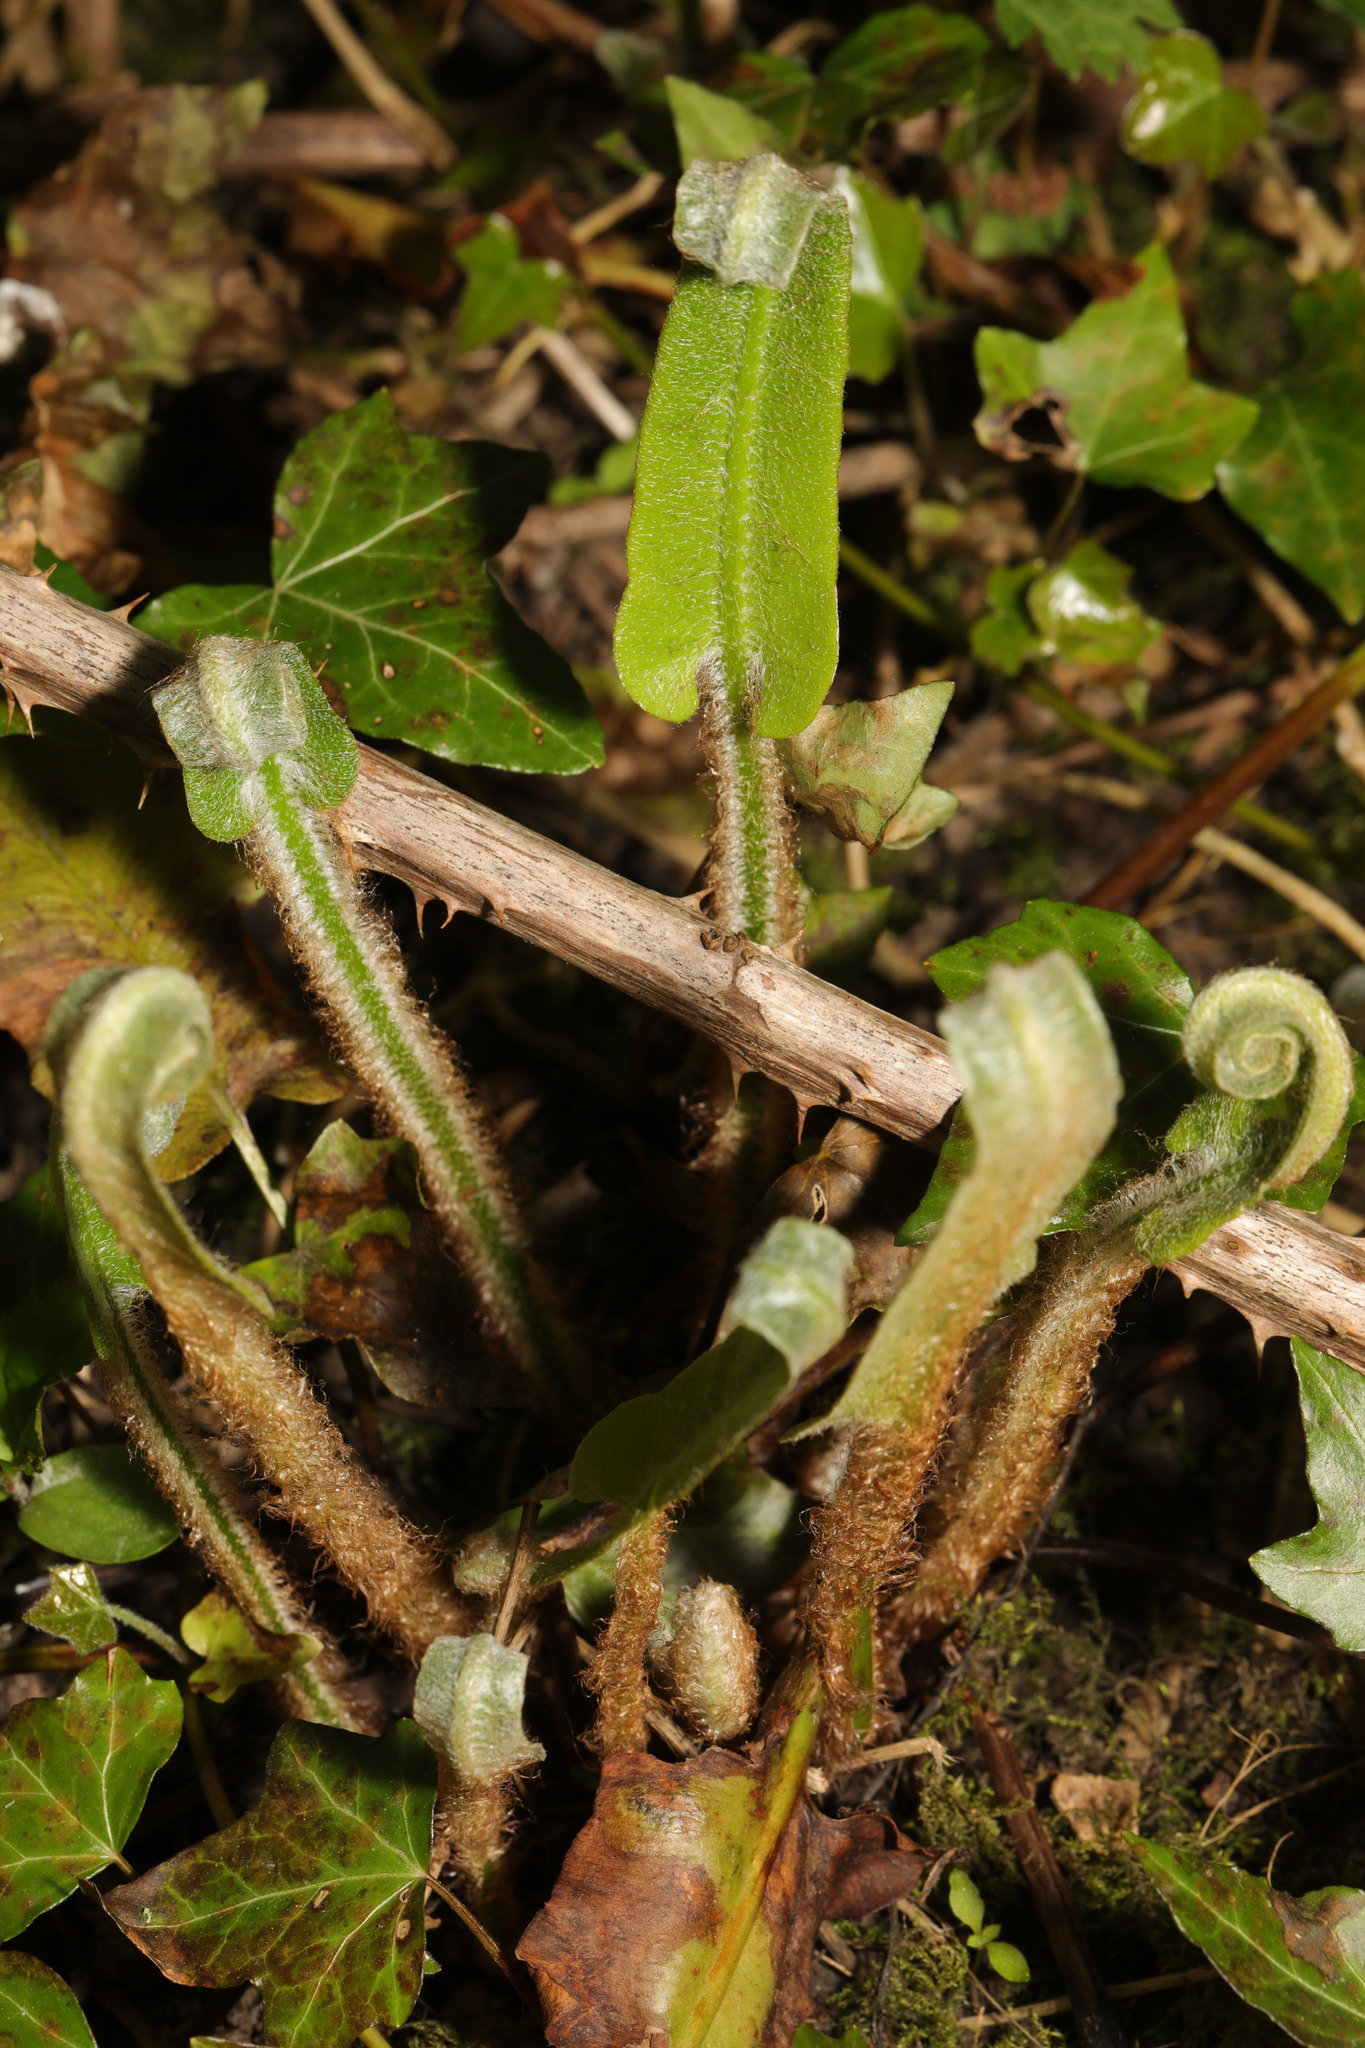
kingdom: Plantae
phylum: Tracheophyta
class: Polypodiopsida
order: Polypodiales
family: Aspleniaceae
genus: Asplenium
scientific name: Asplenium scolopendrium
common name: Hart's-tongue fern
